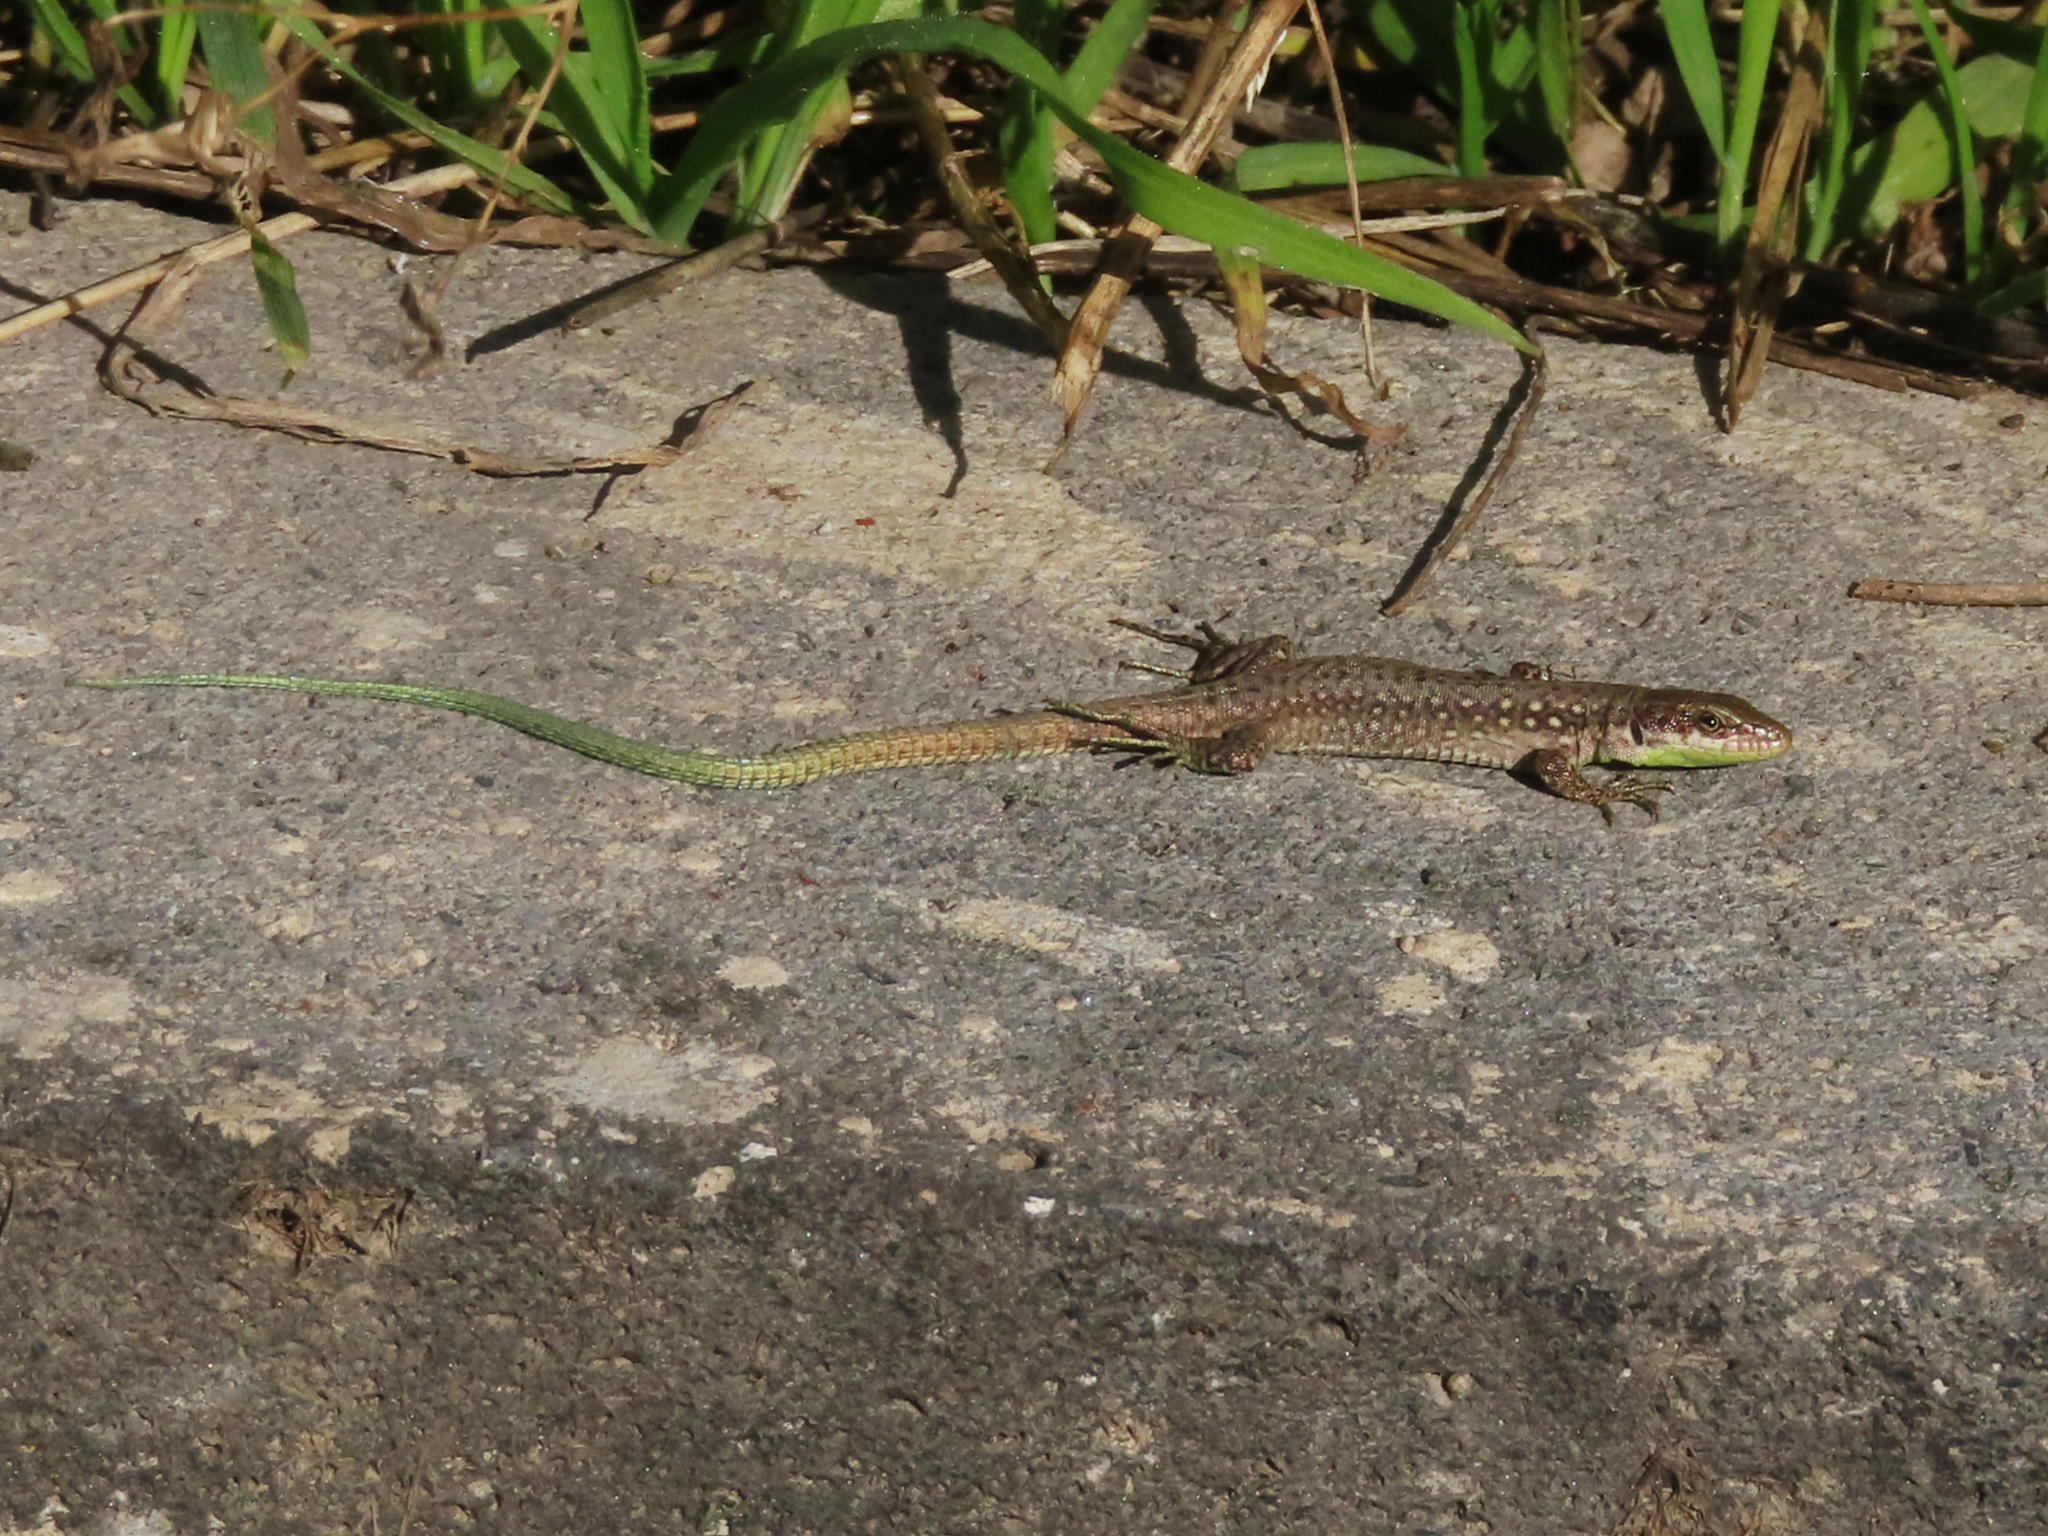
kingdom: Animalia
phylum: Chordata
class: Squamata
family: Lacertidae
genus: Darevskia
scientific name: Darevskia raddei
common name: Radde's lizard
